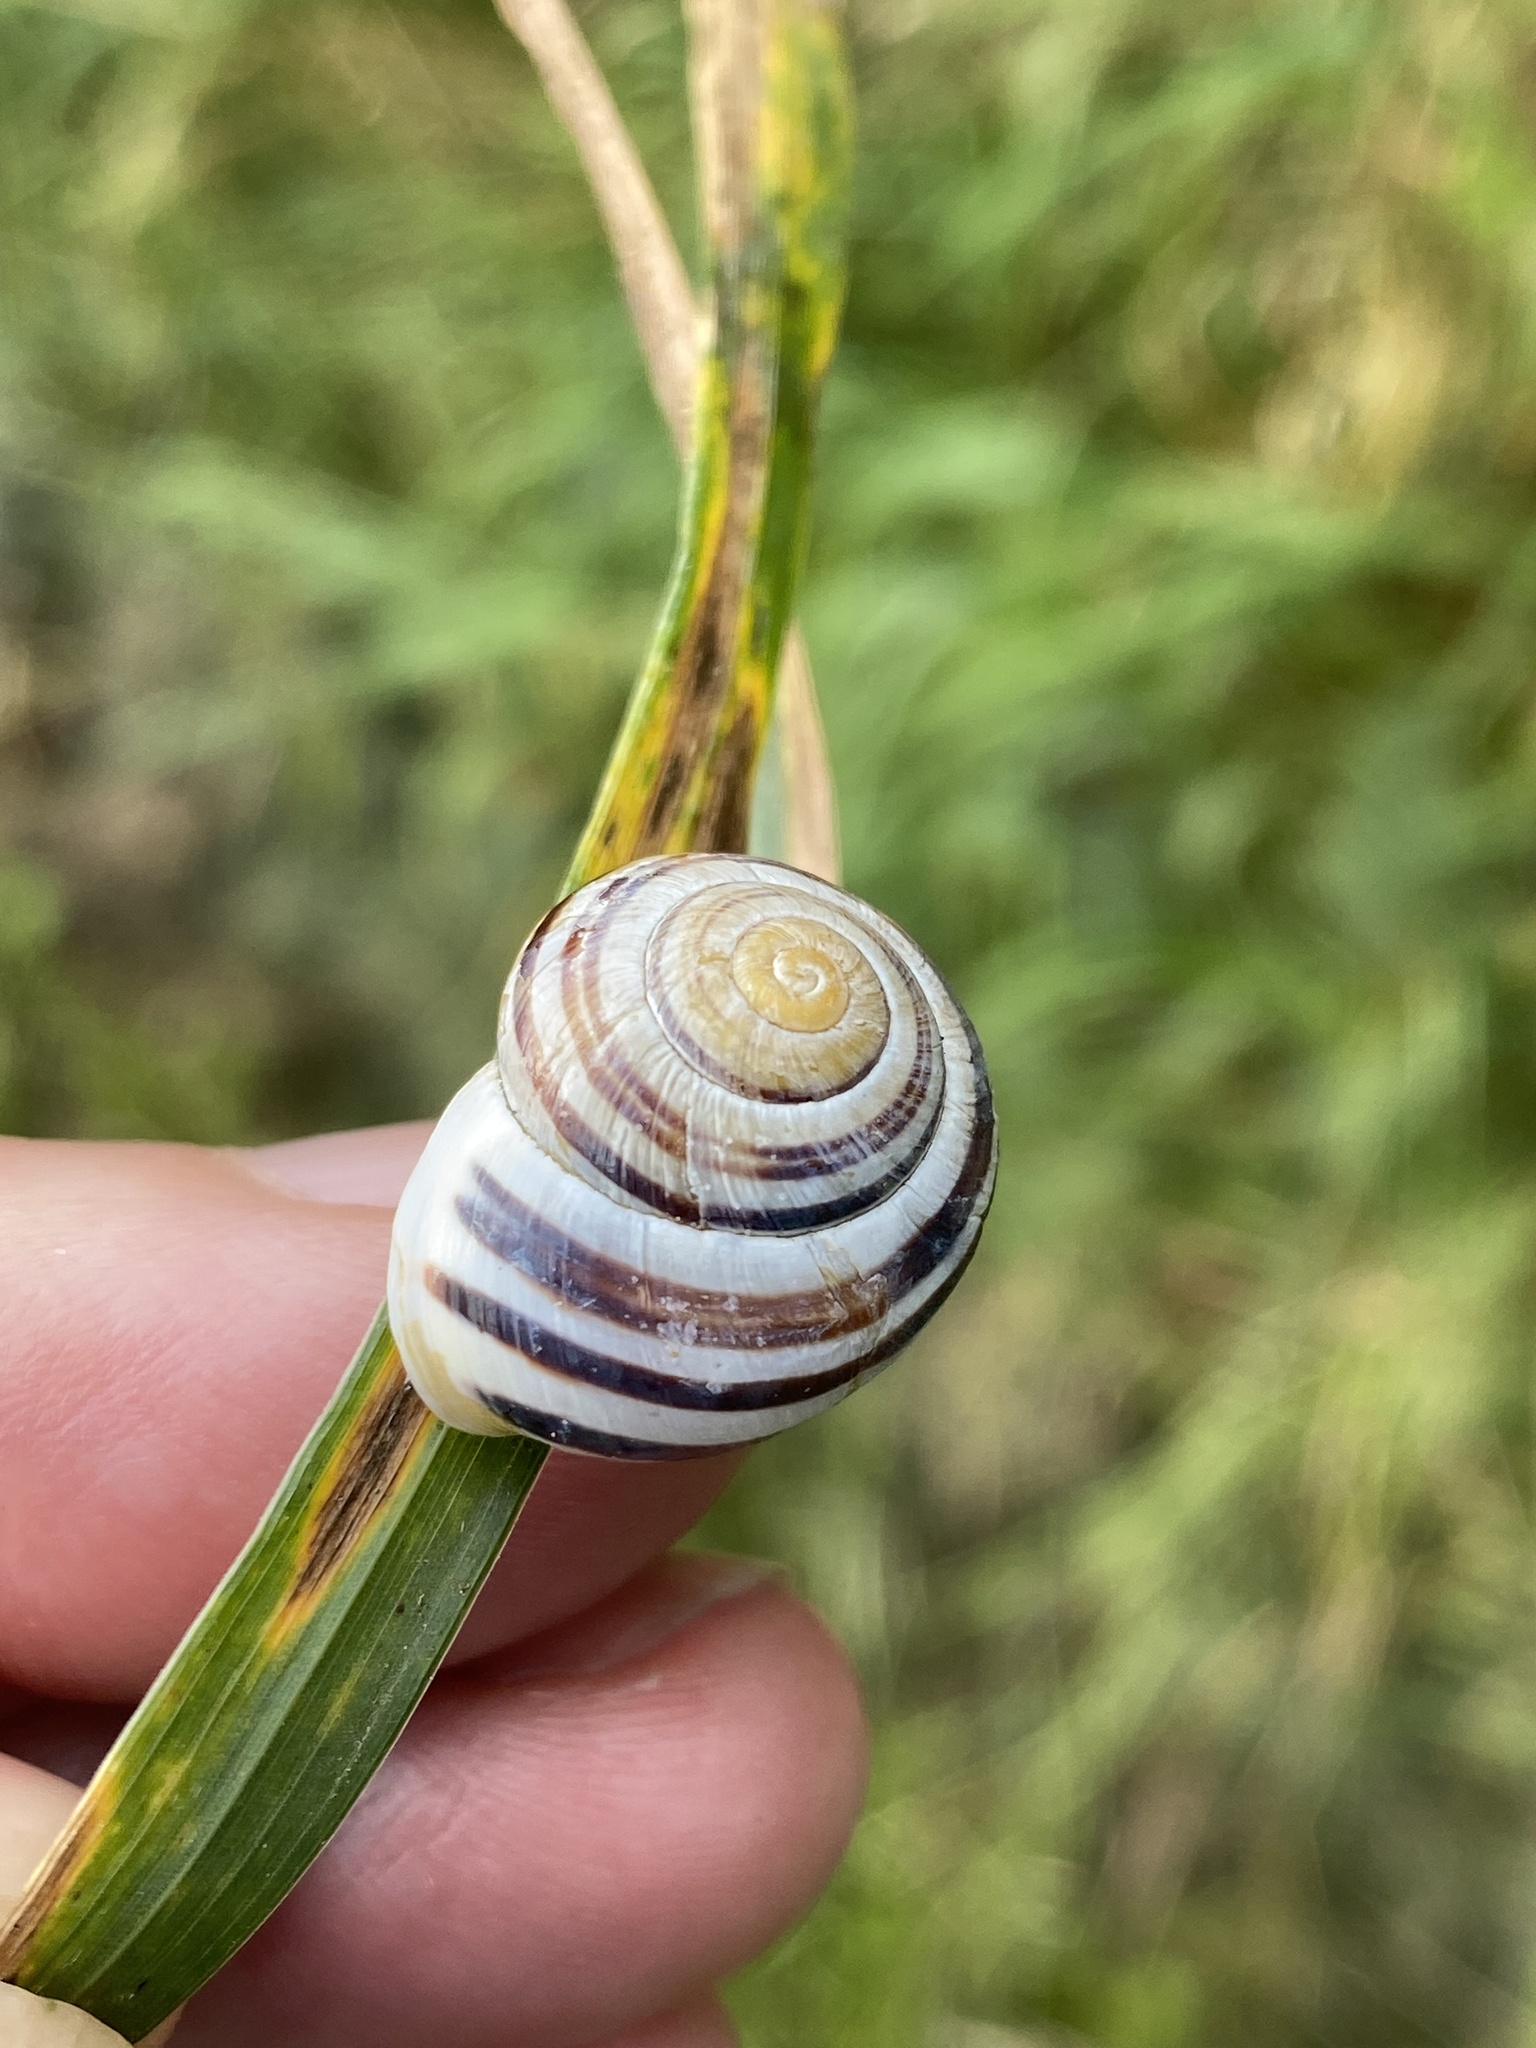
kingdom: Animalia
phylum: Mollusca
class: Gastropoda
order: Stylommatophora
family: Helicidae
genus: Cepaea
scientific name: Cepaea hortensis
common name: White-lip gardensnail
